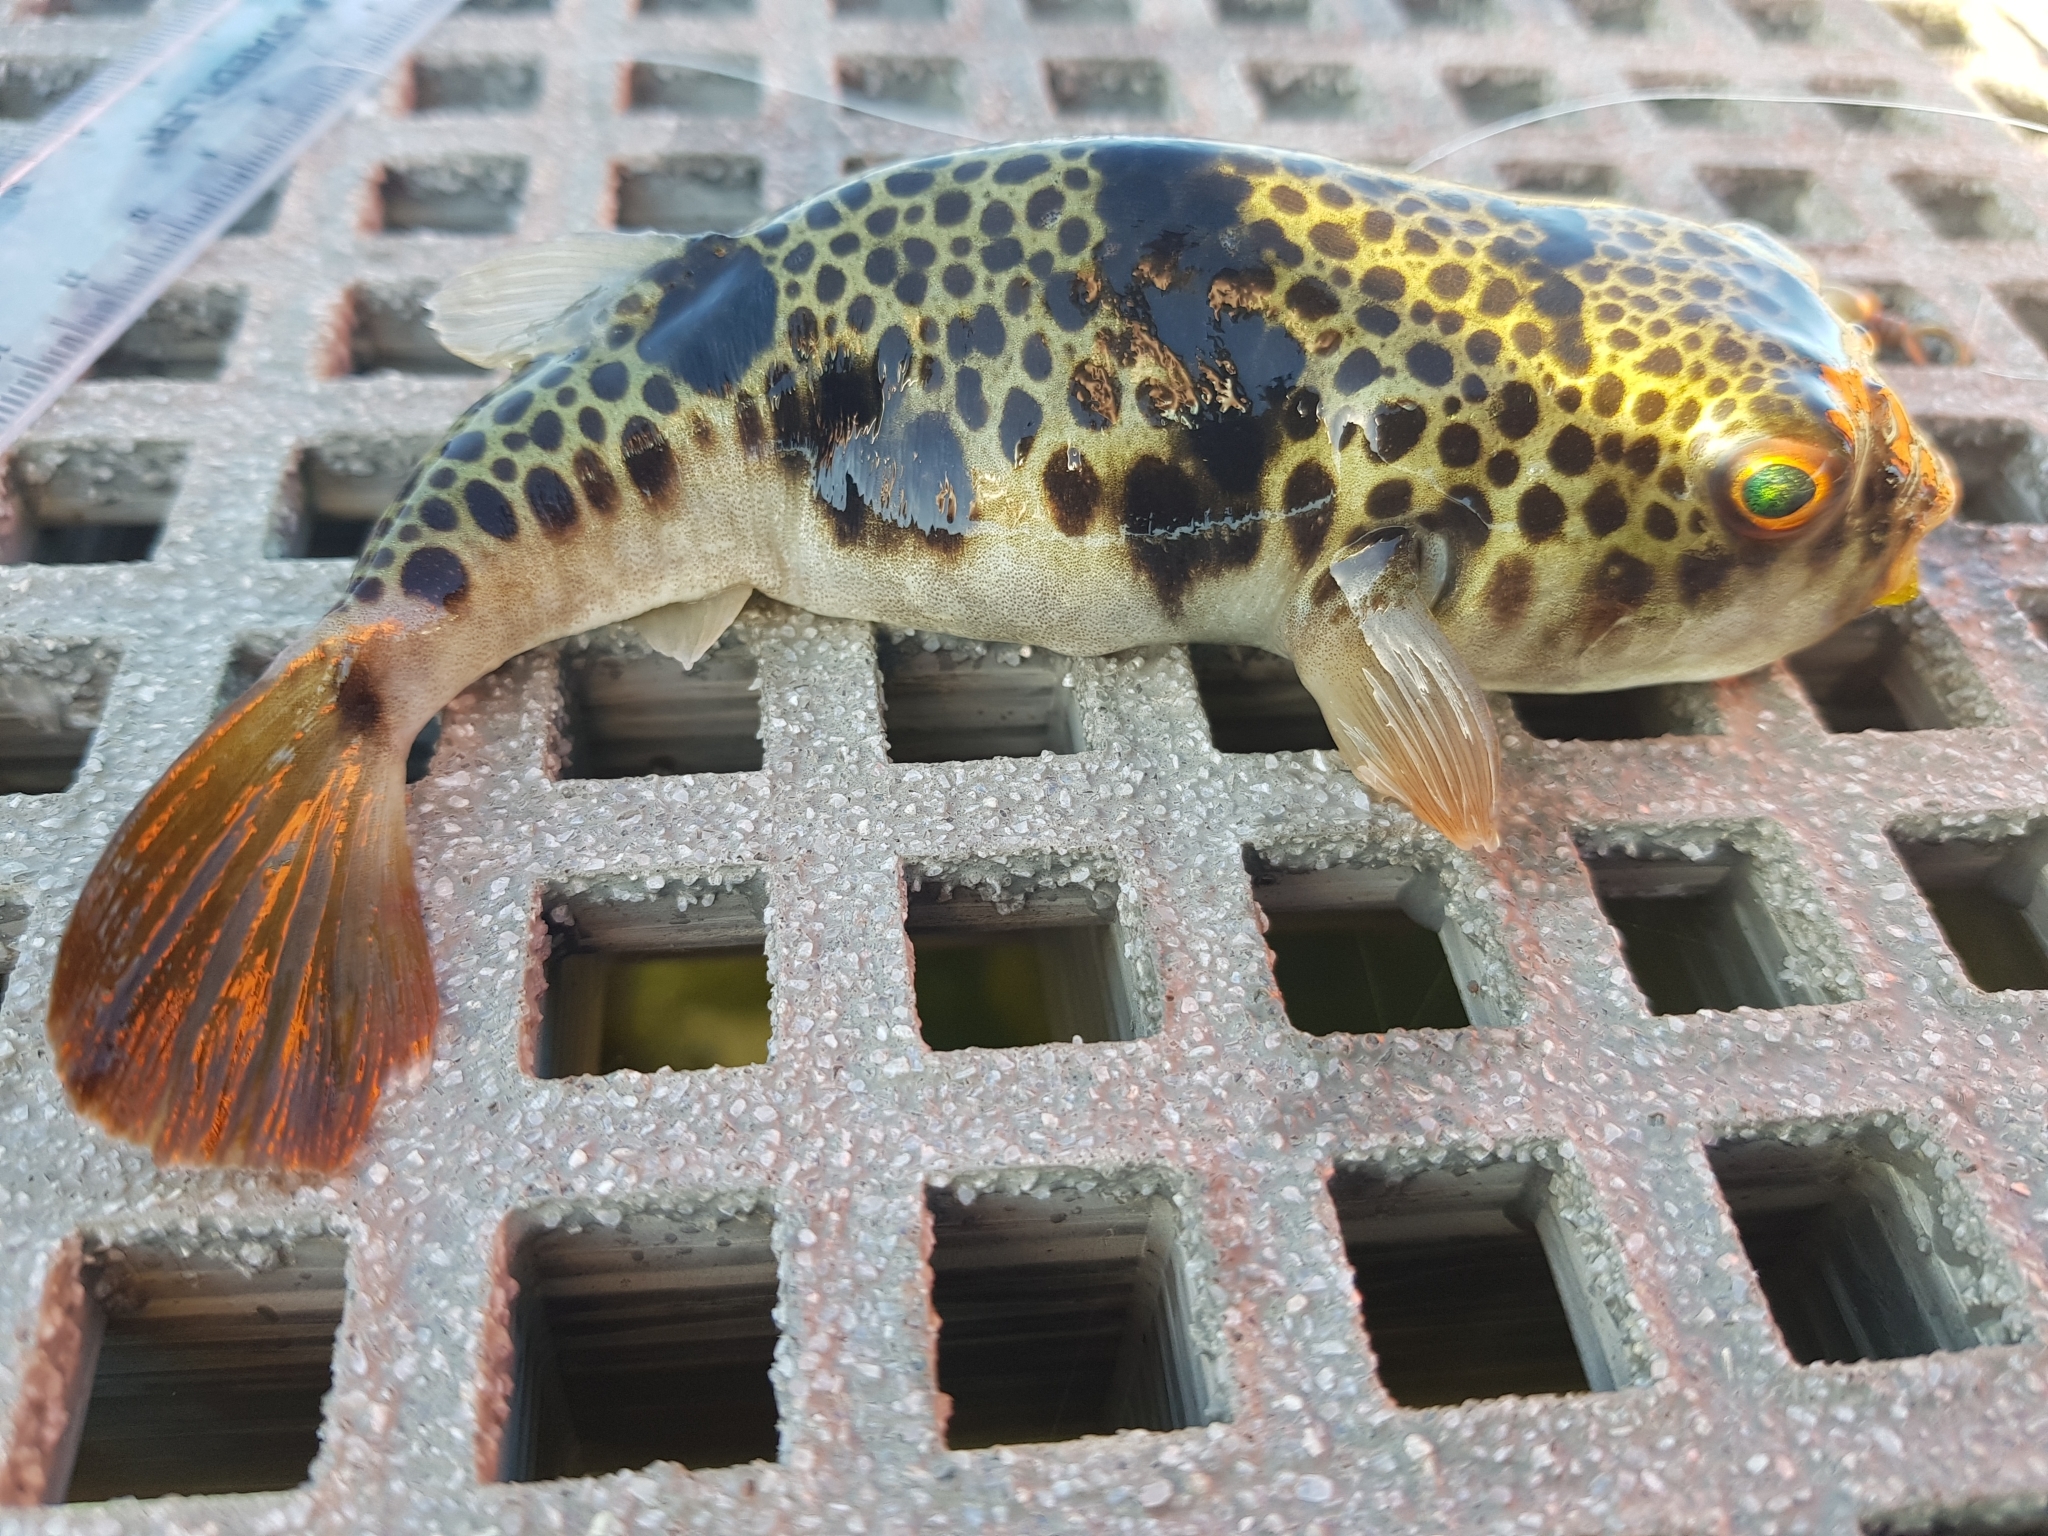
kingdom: Animalia
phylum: Chordata
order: Tetraodontiformes
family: Tetraodontidae
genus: Tetractenos
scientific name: Tetractenos glaber
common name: Smooth toadfish
